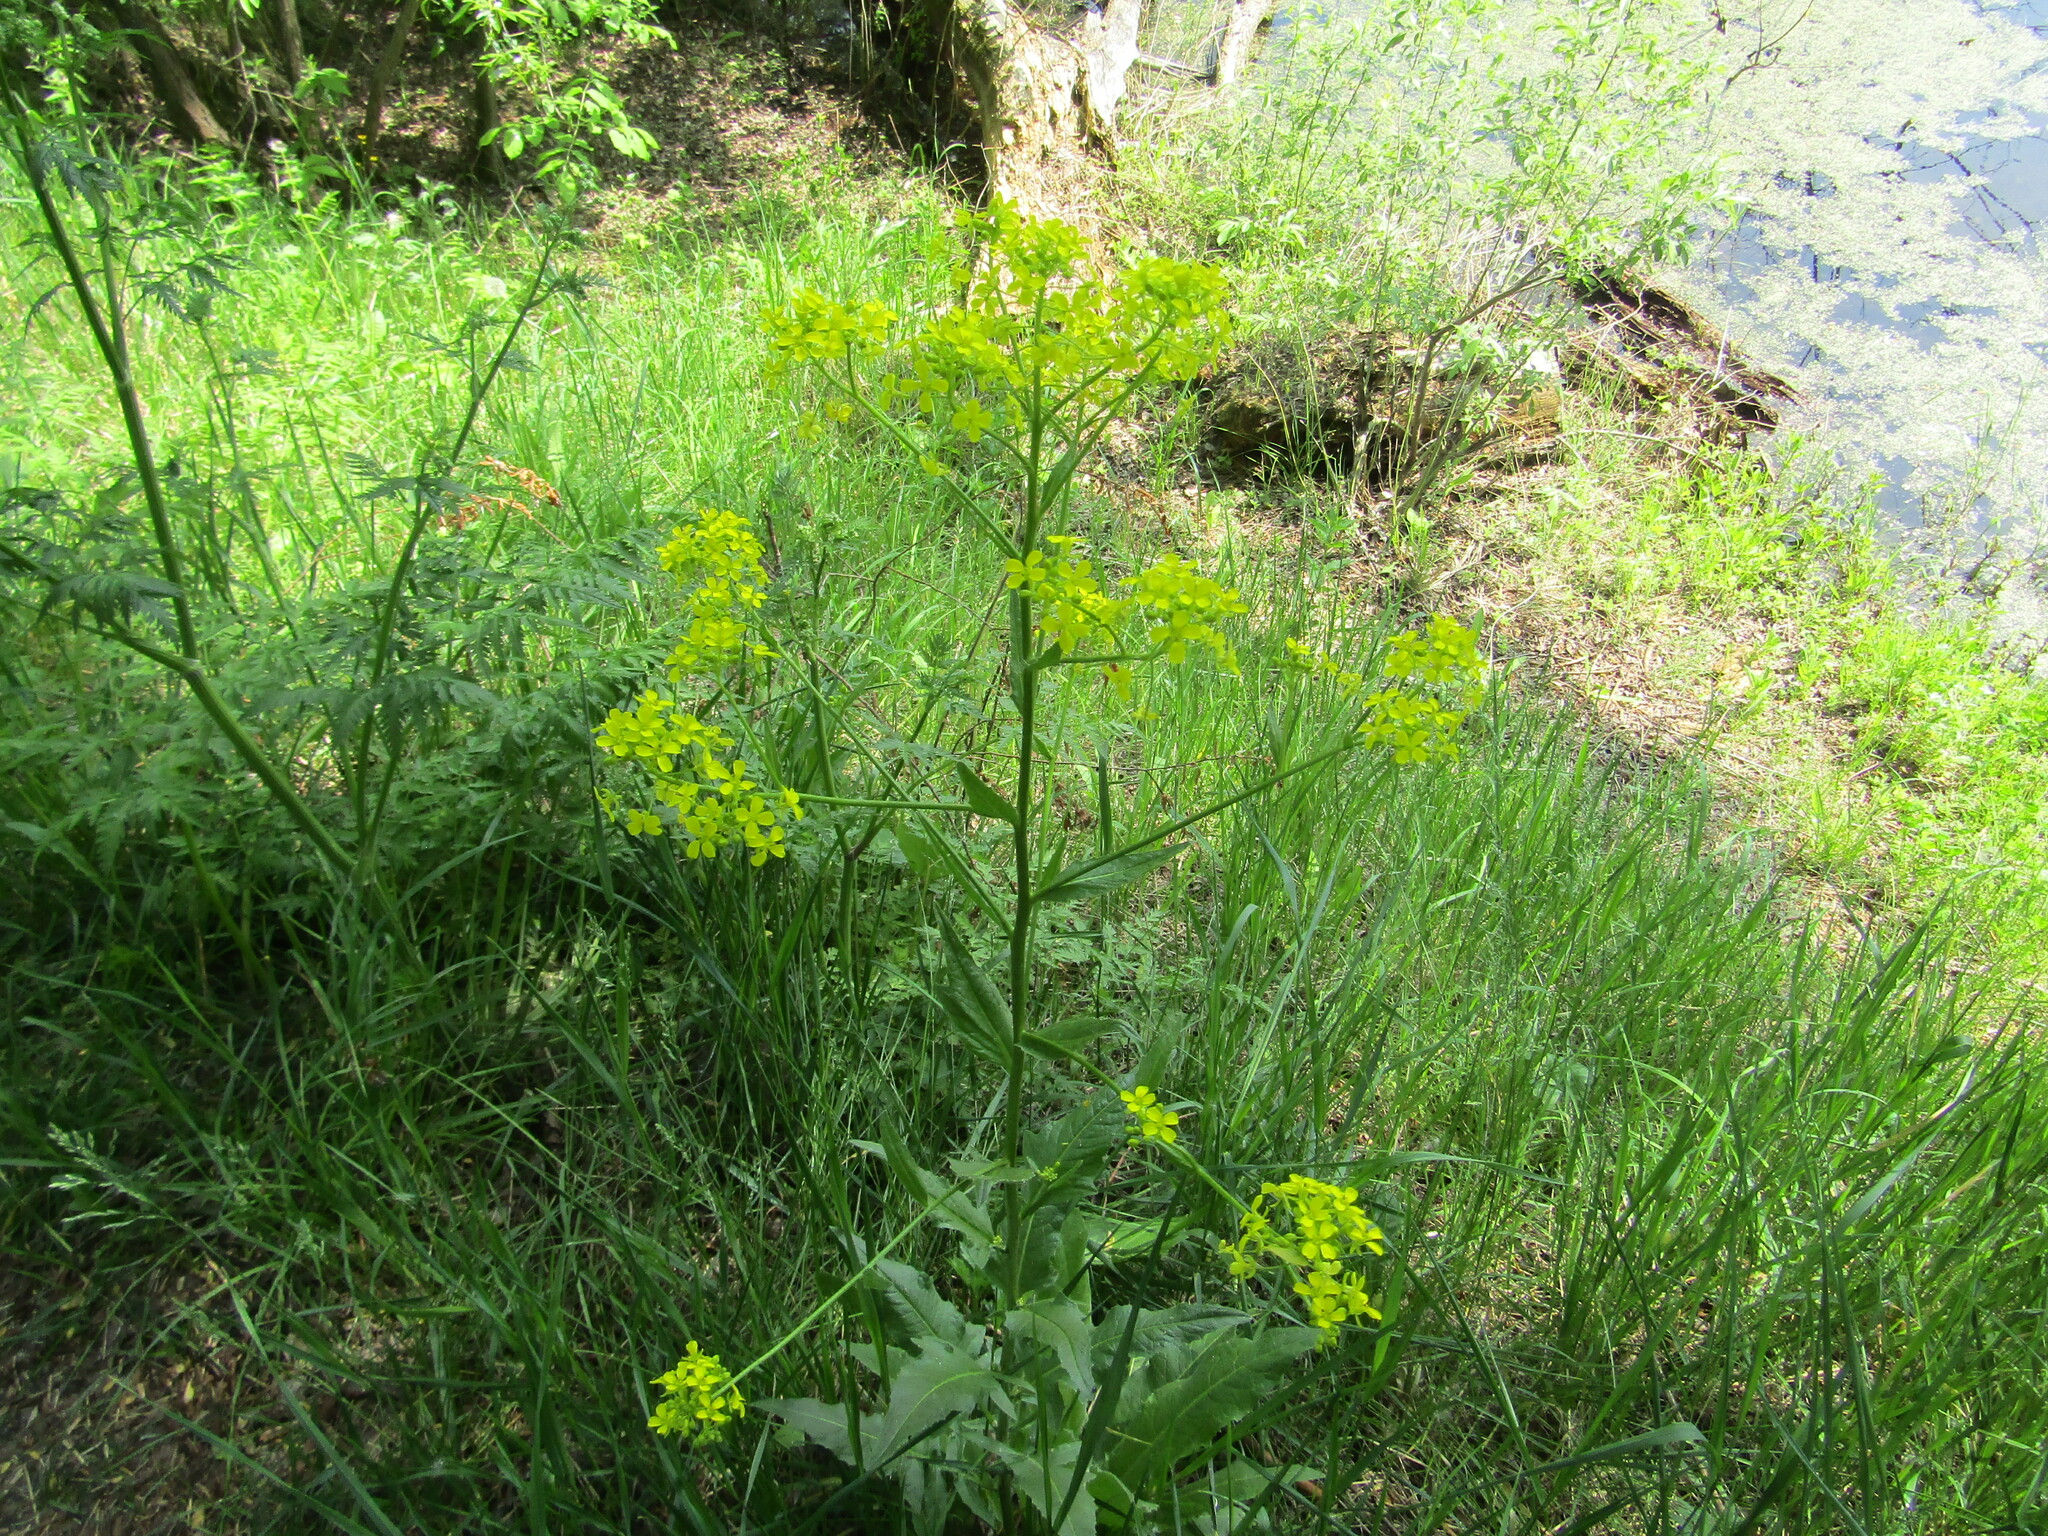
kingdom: Plantae
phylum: Tracheophyta
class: Magnoliopsida
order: Brassicales
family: Brassicaceae
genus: Bunias
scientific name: Bunias orientalis
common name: Warty-cabbage
